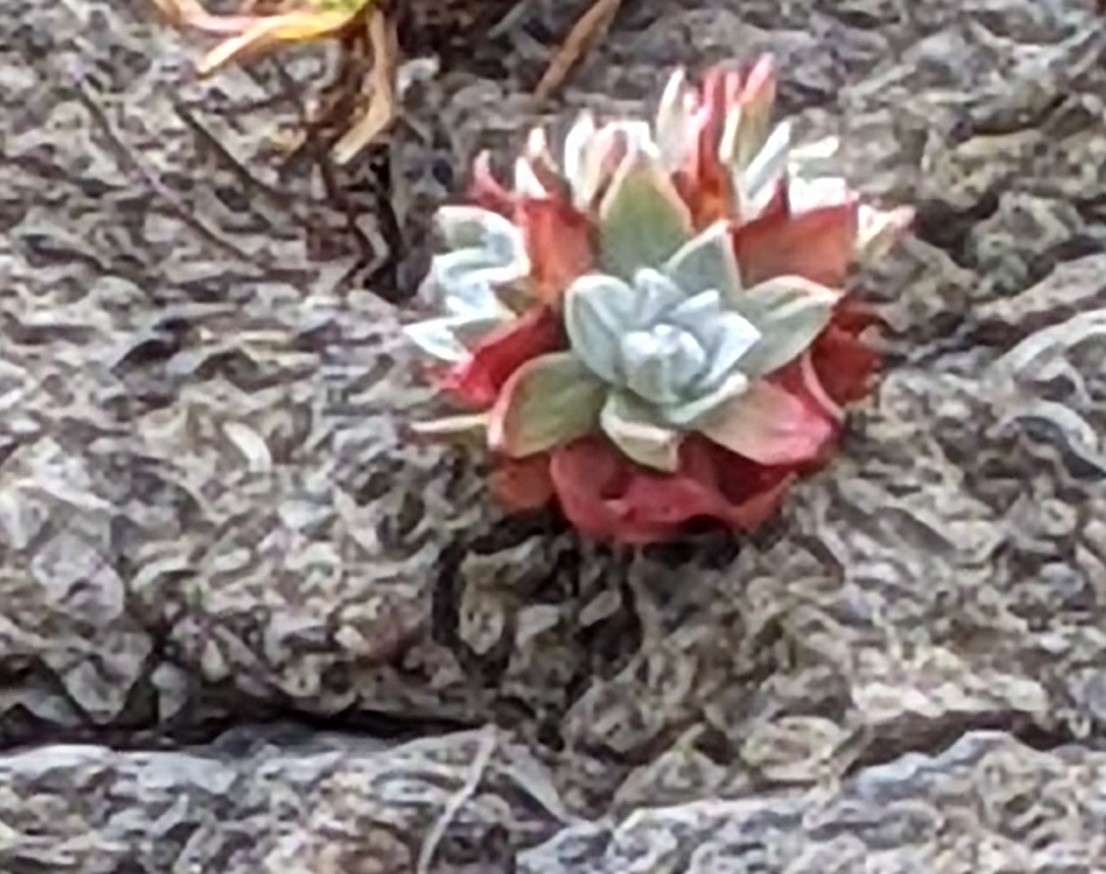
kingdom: Plantae
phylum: Tracheophyta
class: Magnoliopsida
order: Saxifragales
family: Crassulaceae
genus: Dudleya
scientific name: Dudleya farinosa
